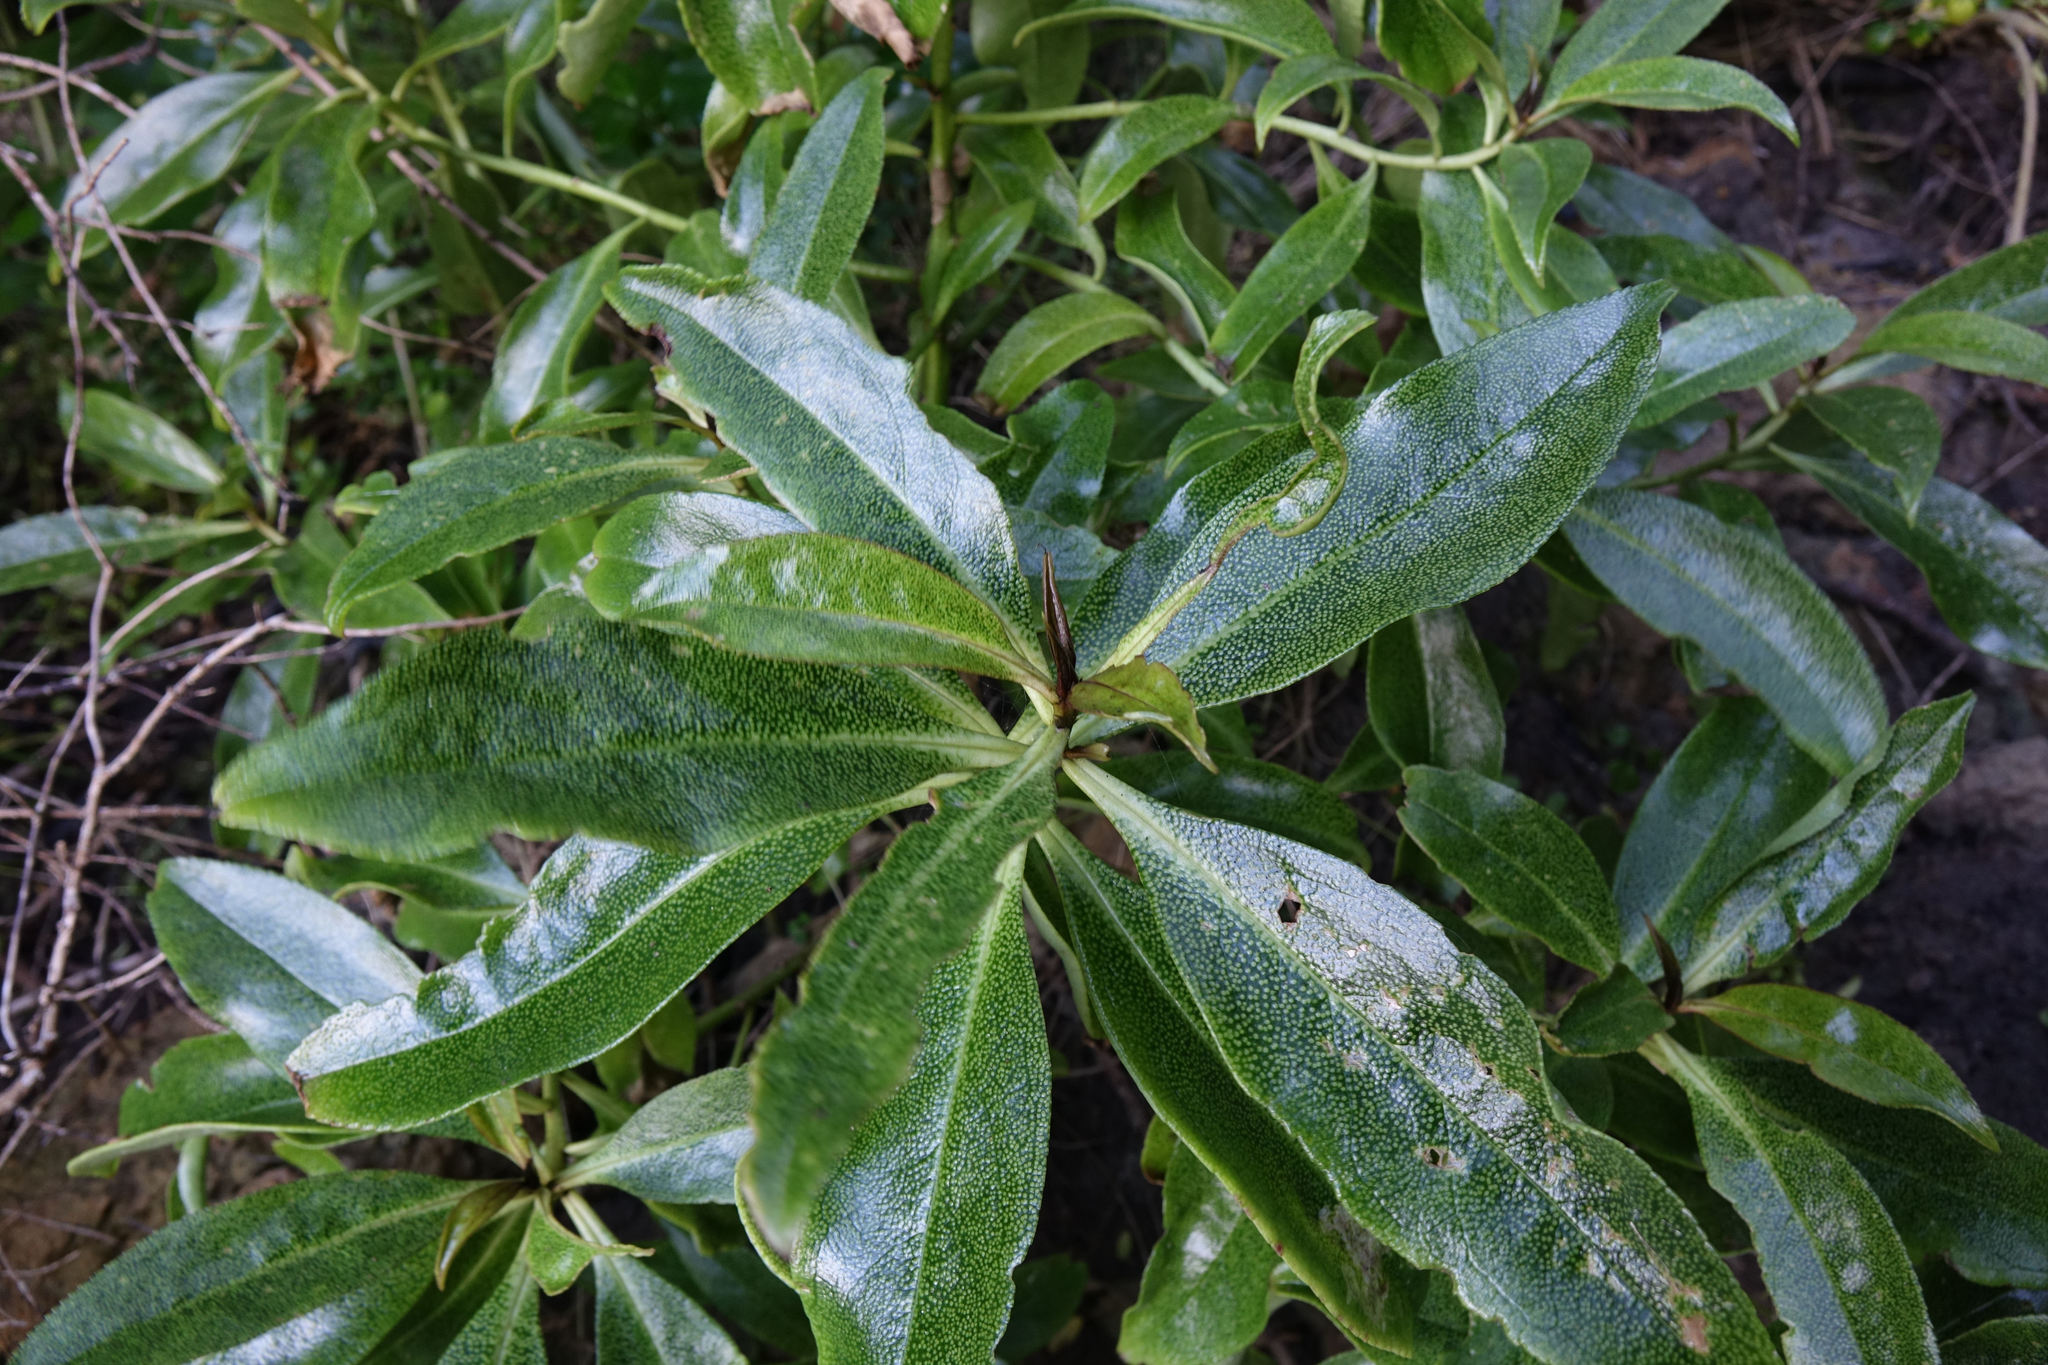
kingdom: Plantae
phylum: Tracheophyta
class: Magnoliopsida
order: Lamiales
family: Scrophulariaceae
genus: Myoporum
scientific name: Myoporum laetum
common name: Ngaio tree
